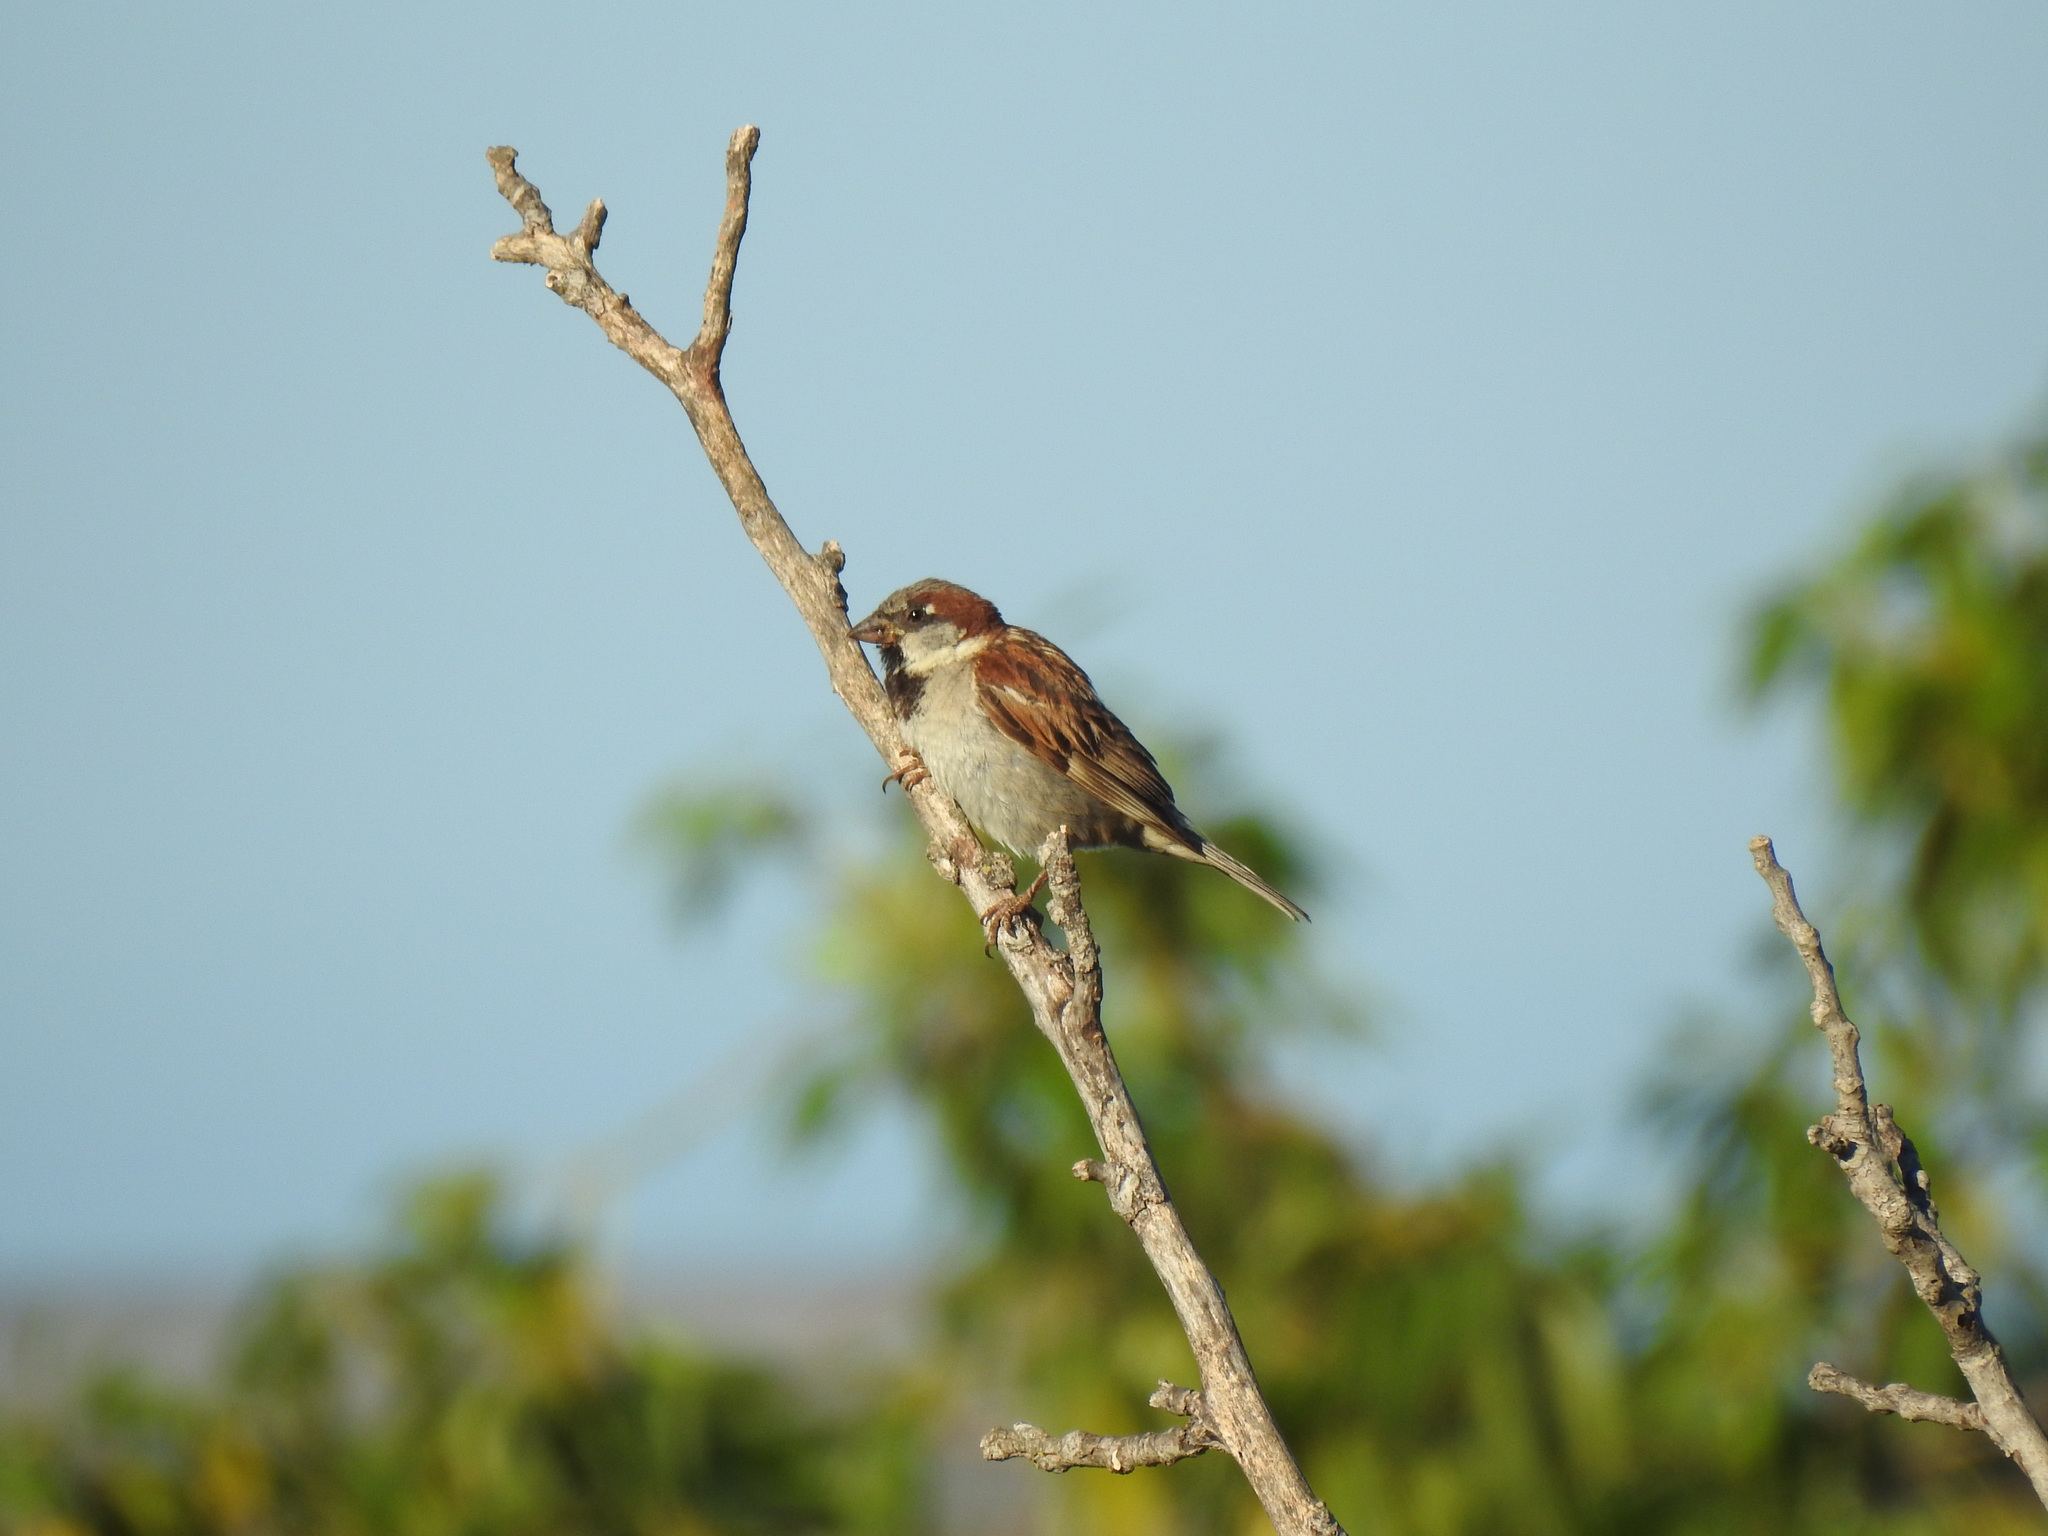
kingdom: Animalia
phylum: Chordata
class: Aves
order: Passeriformes
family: Passeridae
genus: Passer
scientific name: Passer domesticus
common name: House sparrow
